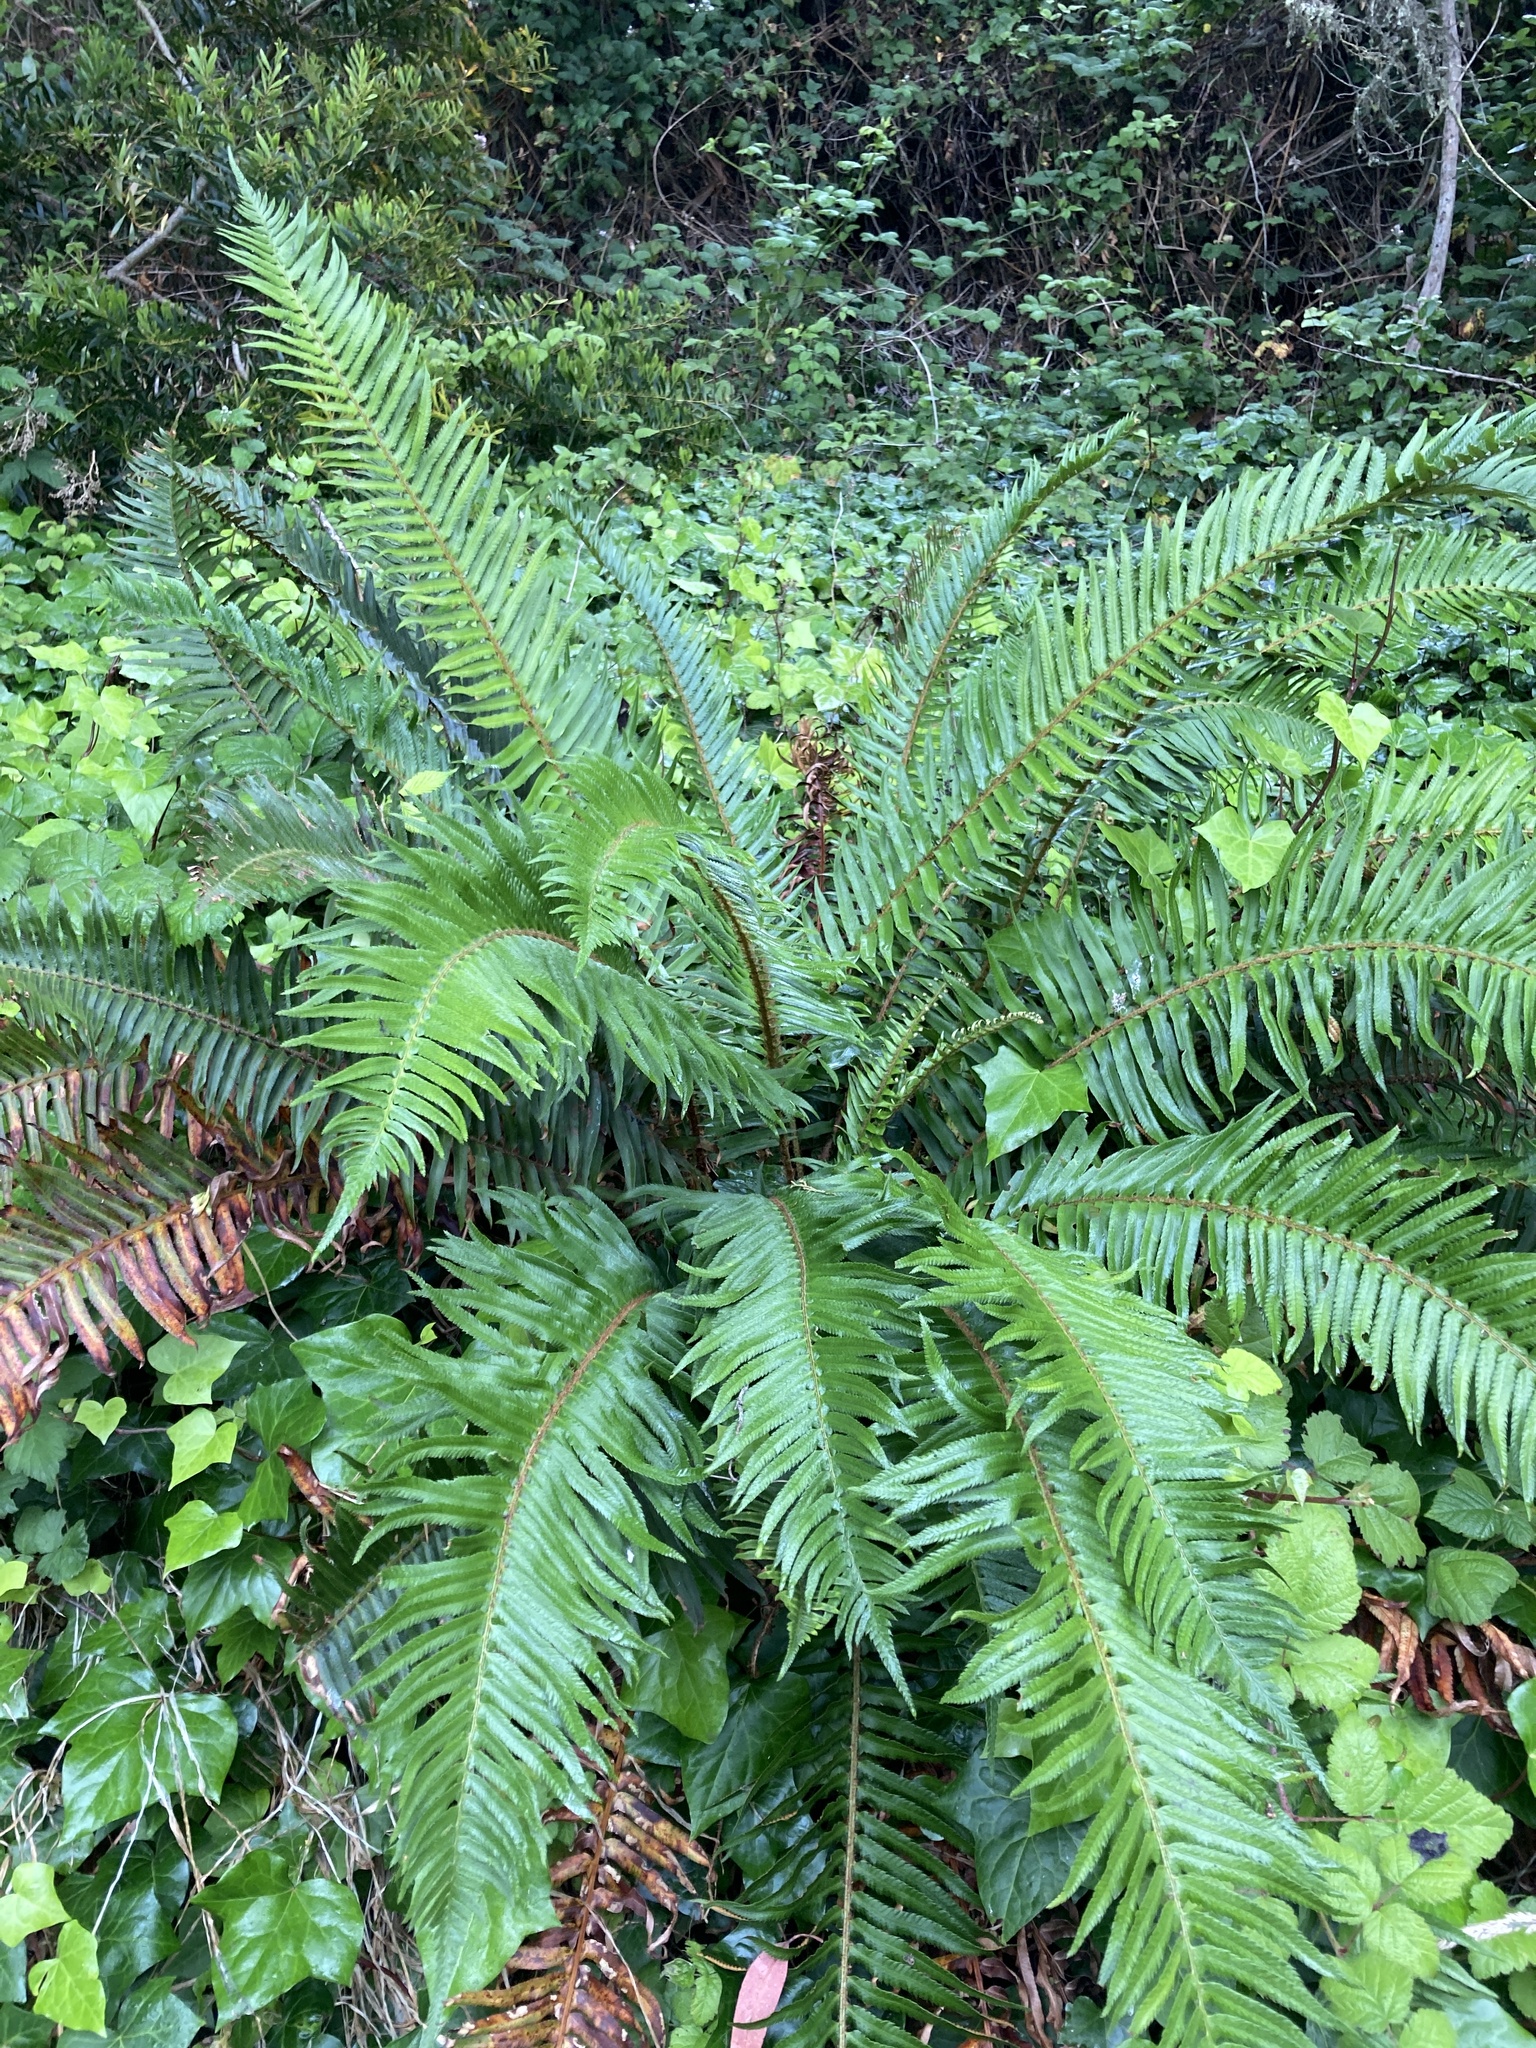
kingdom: Plantae
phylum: Tracheophyta
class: Polypodiopsida
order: Polypodiales
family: Dryopteridaceae
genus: Polystichum
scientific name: Polystichum munitum
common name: Western sword-fern
